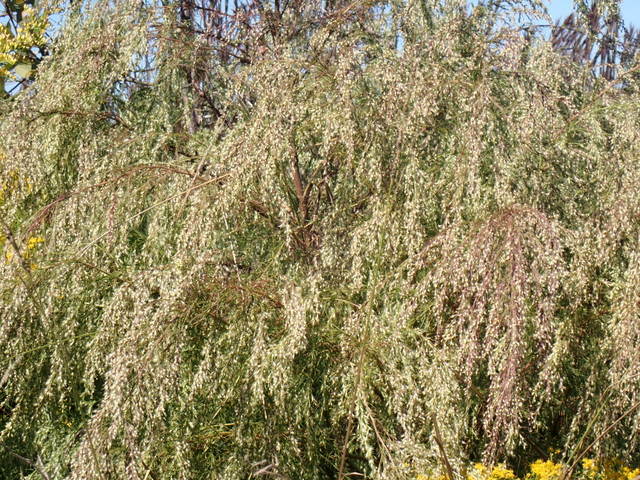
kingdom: Plantae
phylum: Tracheophyta
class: Magnoliopsida
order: Asterales
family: Asteraceae
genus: Eupatorium
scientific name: Eupatorium capillifolium
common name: Dog-fennel
